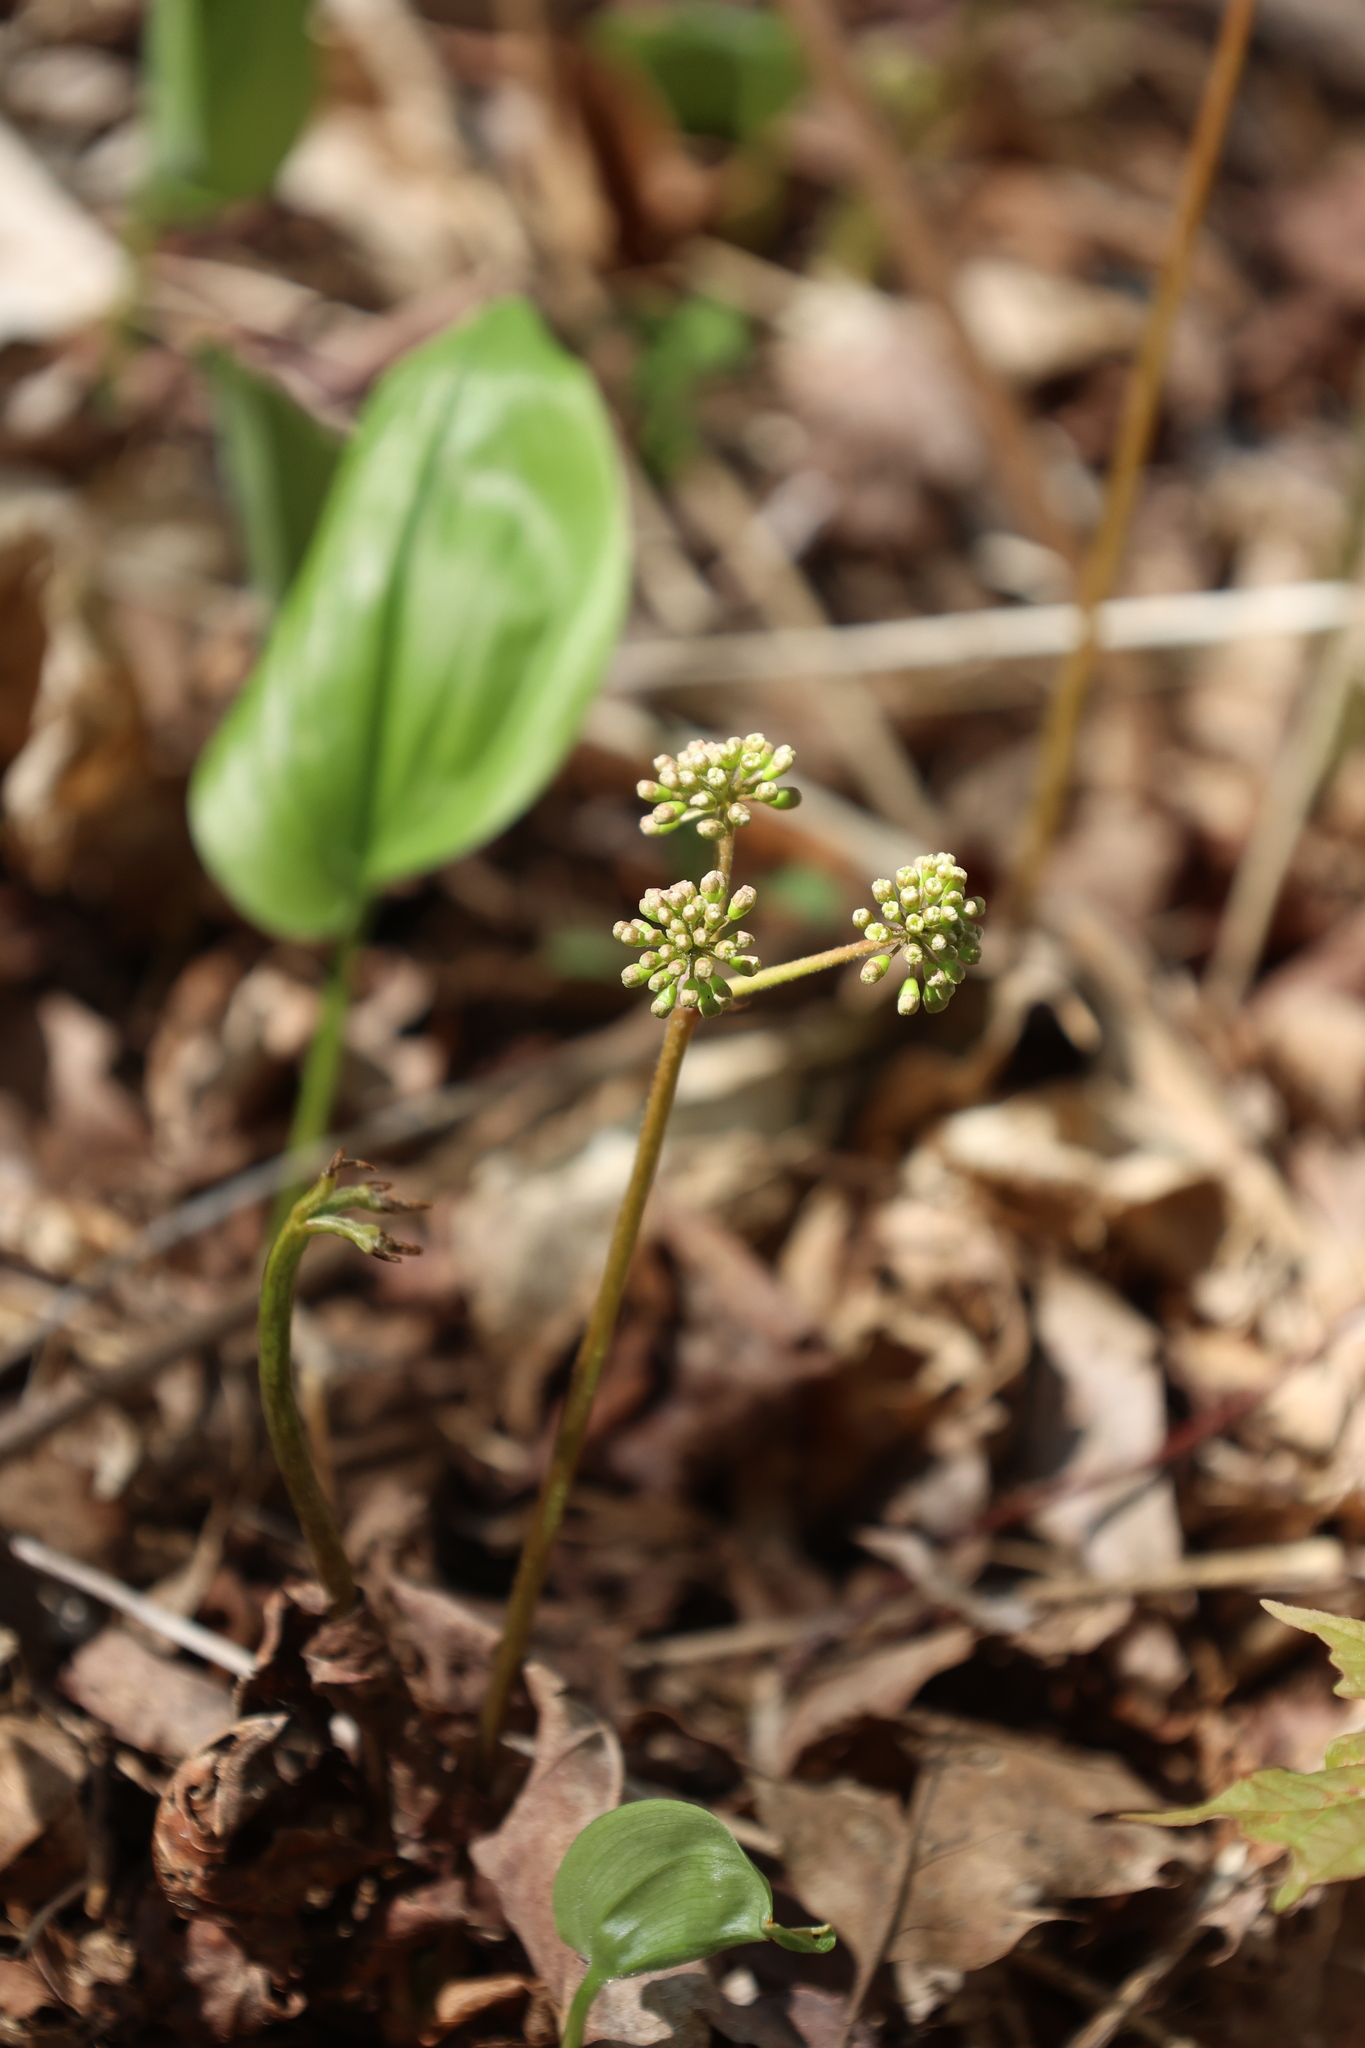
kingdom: Plantae
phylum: Tracheophyta
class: Magnoliopsida
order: Apiales
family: Araliaceae
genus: Aralia
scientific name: Aralia nudicaulis
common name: Wild sarsaparilla
